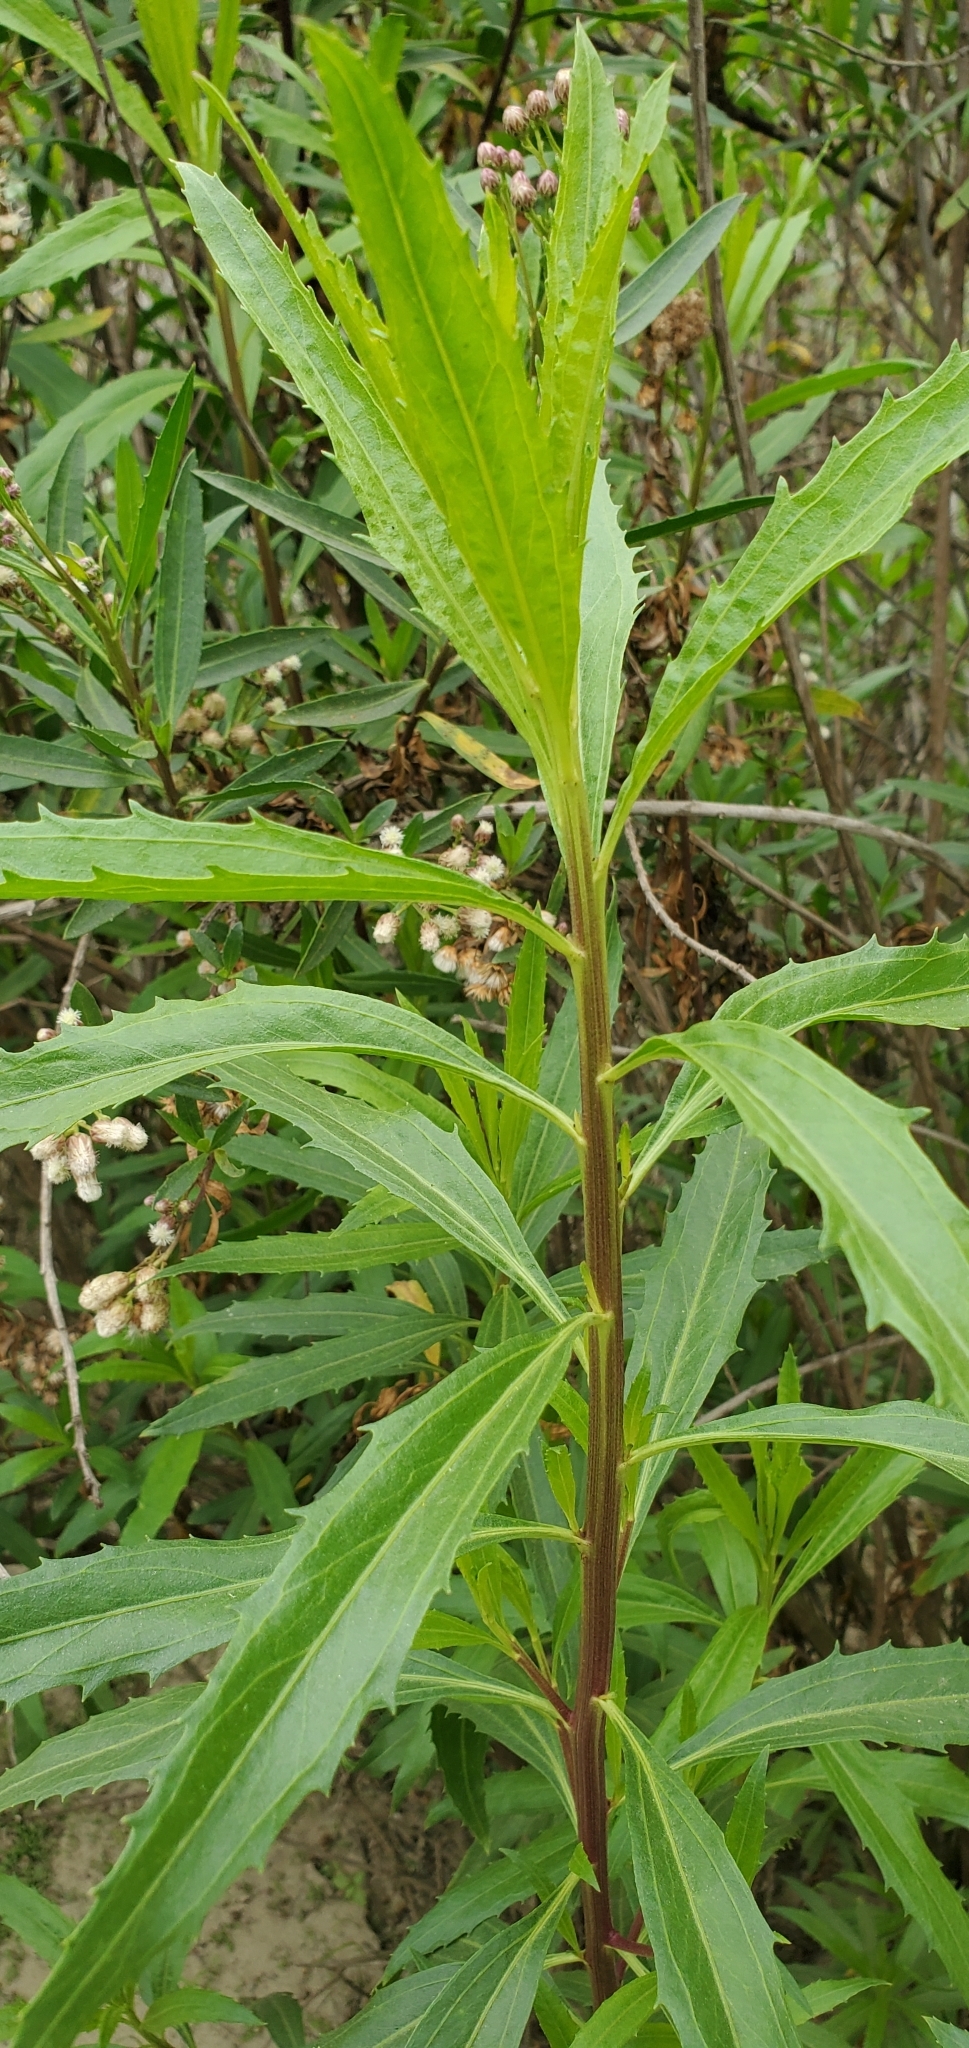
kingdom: Plantae
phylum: Tracheophyta
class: Magnoliopsida
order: Asterales
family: Asteraceae
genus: Baccharis
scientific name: Baccharis salicifolia
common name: Sticky baccharis
